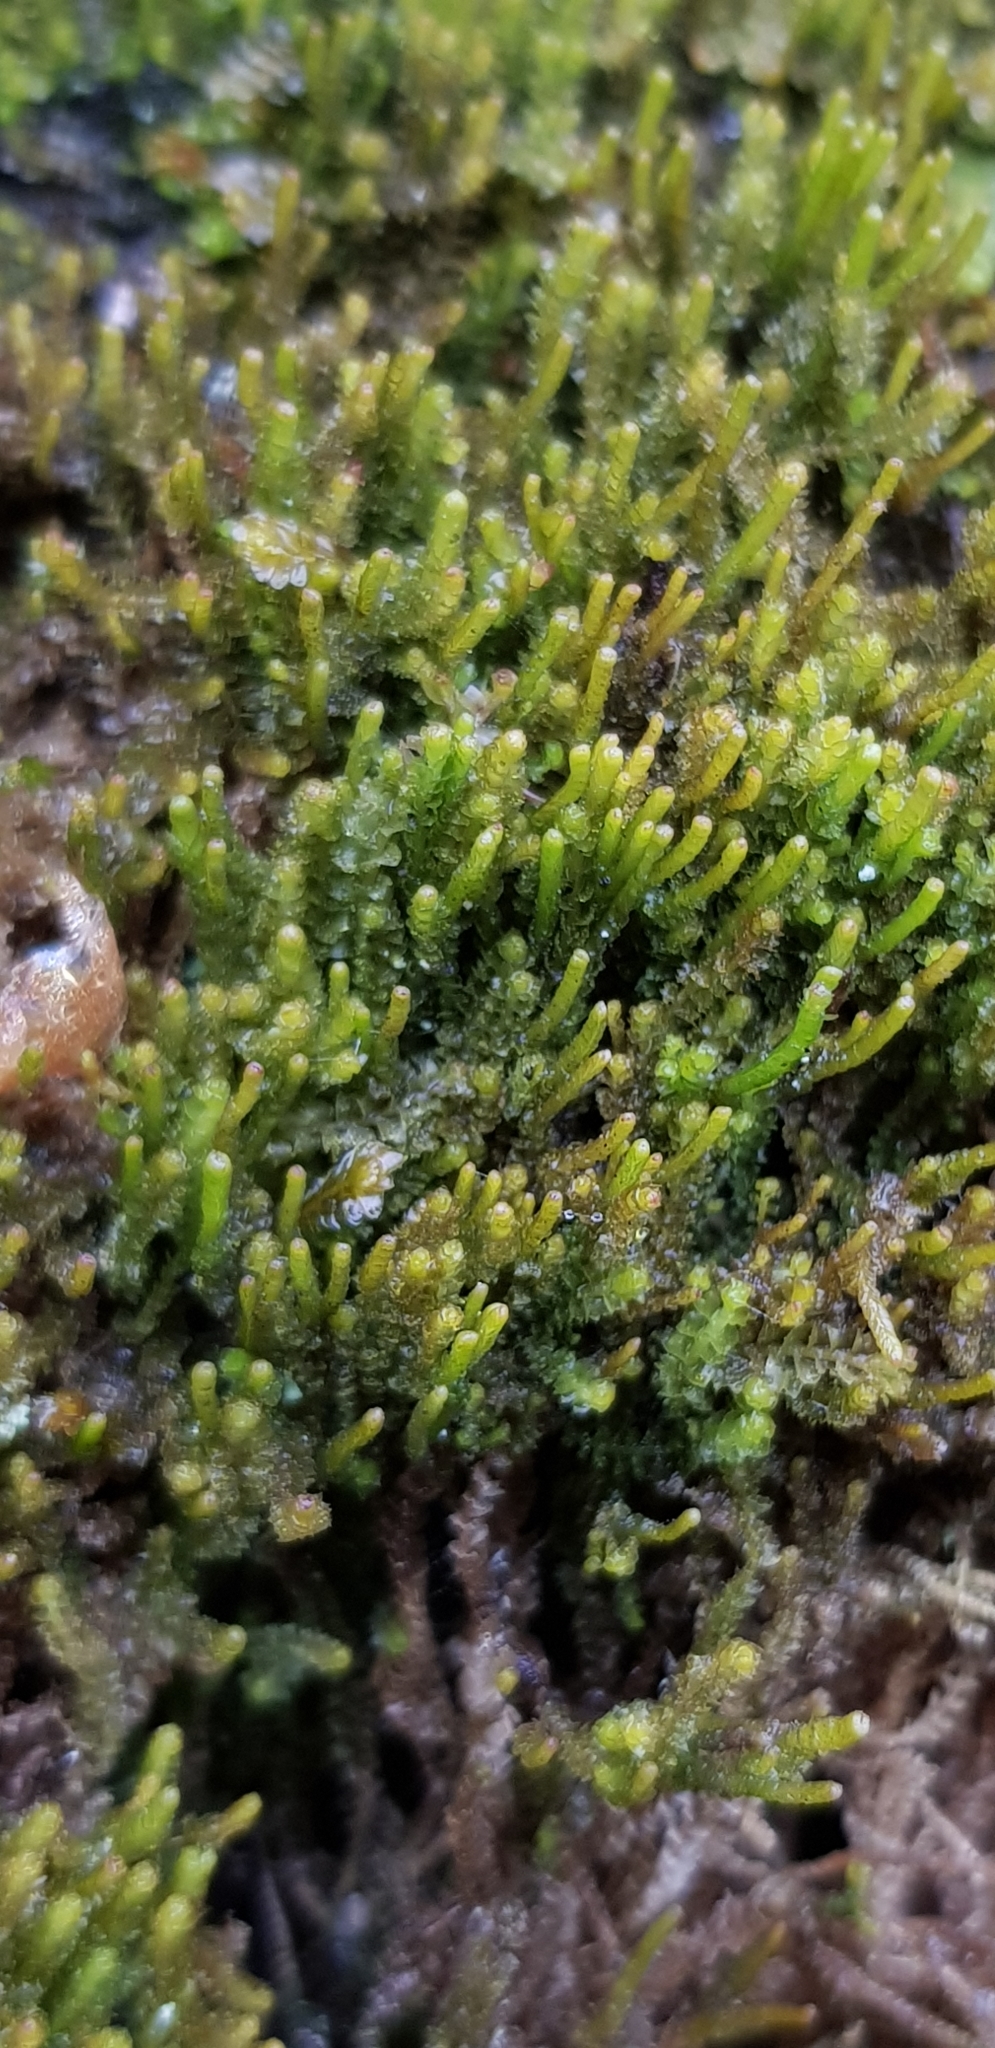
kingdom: Plantae
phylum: Marchantiophyta
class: Jungermanniopsida
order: Jungermanniales
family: Anastrophyllaceae
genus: Neoorthocaulis
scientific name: Neoorthocaulis attenuatus
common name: Trunk pawwort
